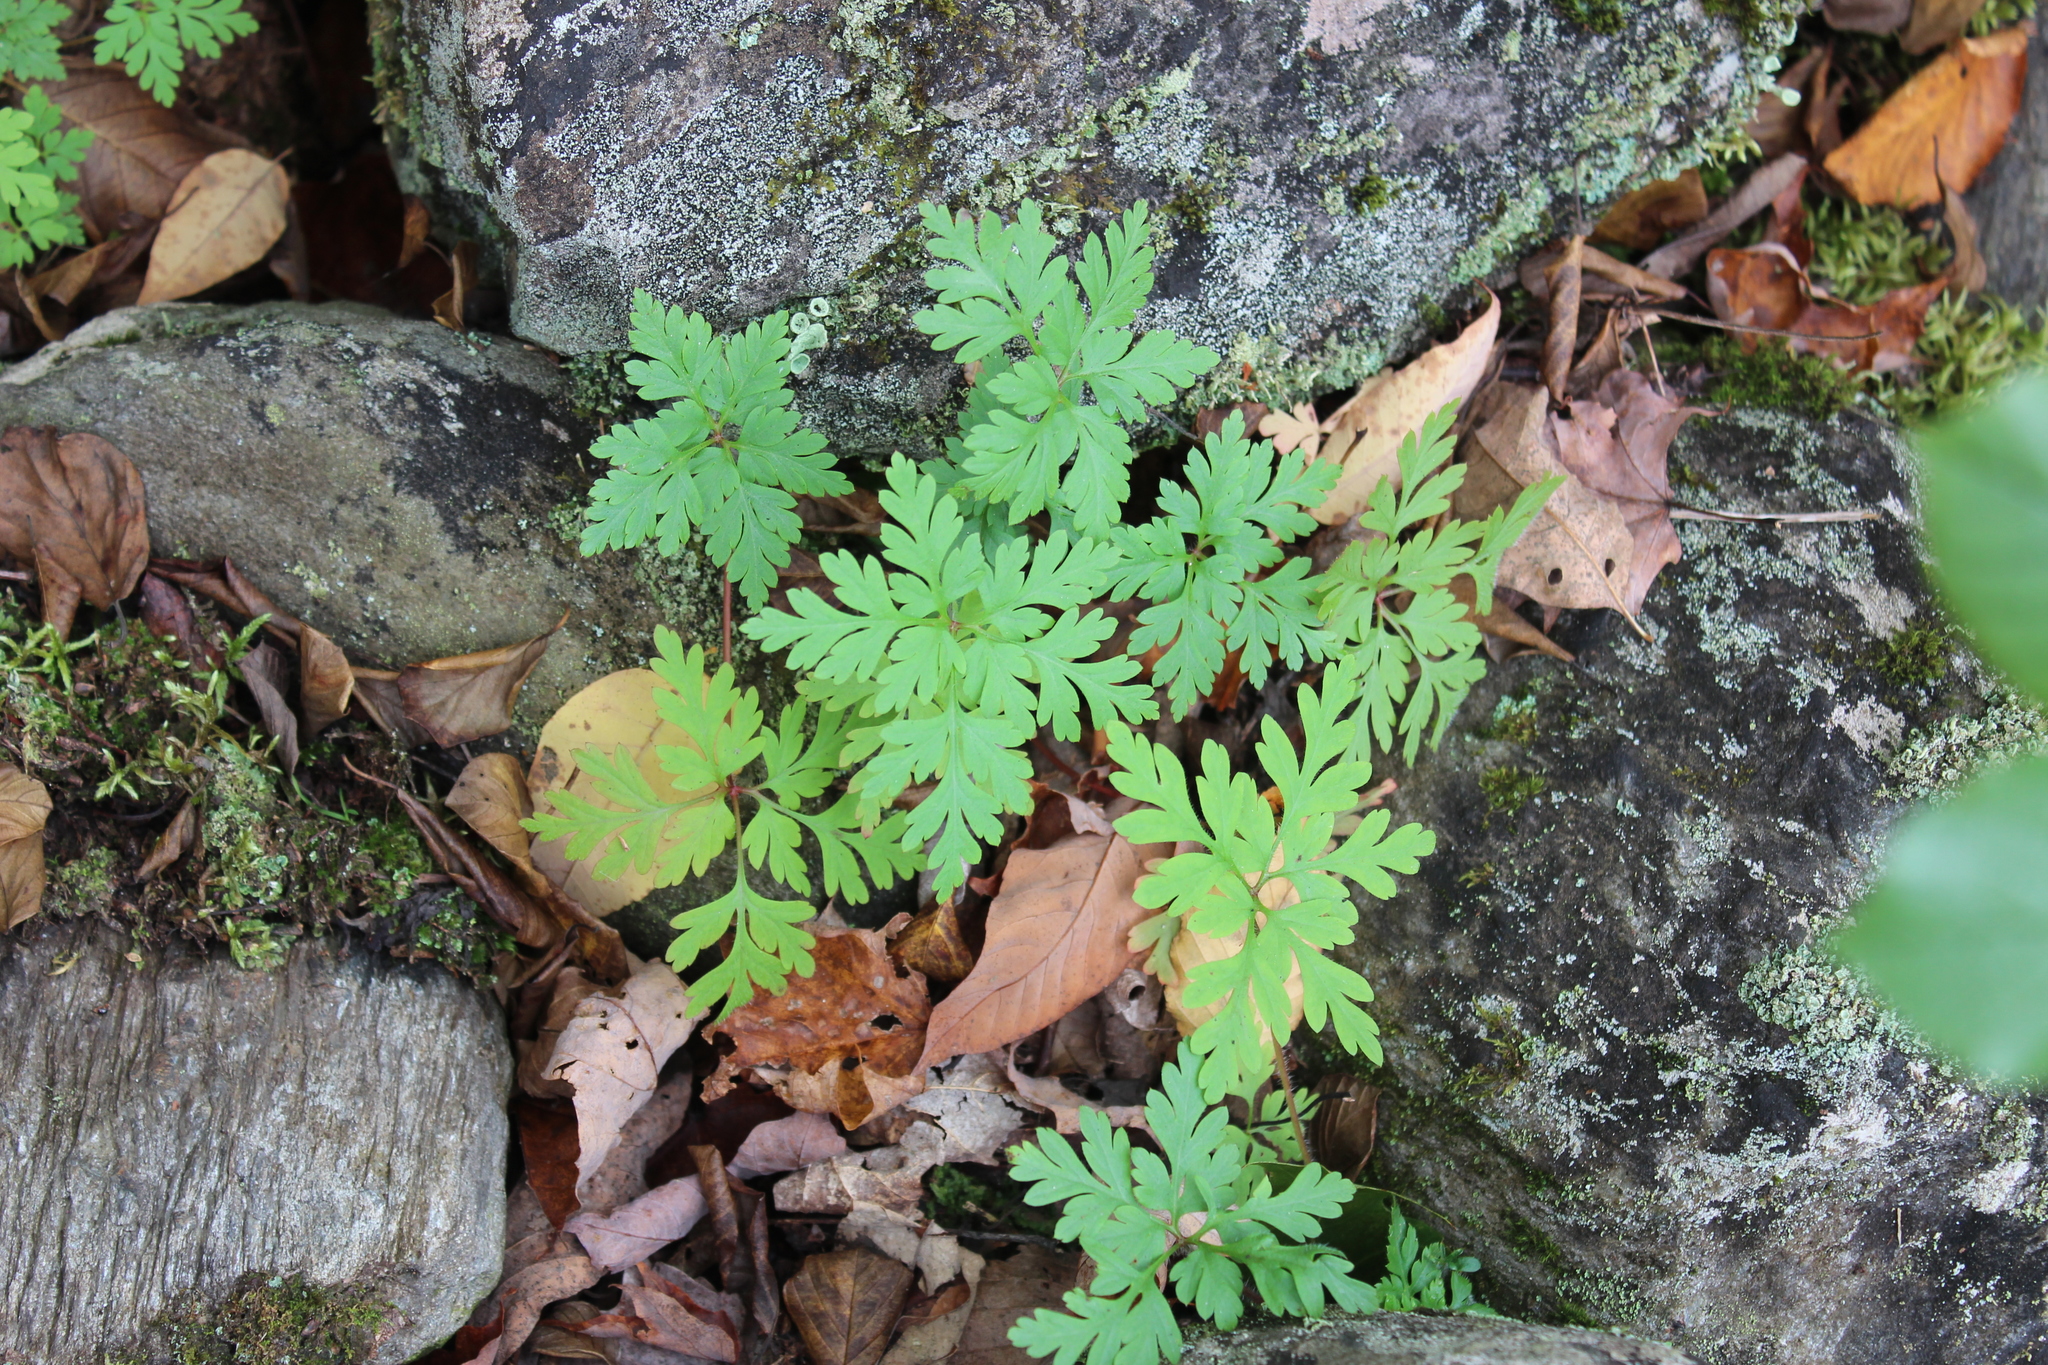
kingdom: Plantae
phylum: Tracheophyta
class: Magnoliopsida
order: Geraniales
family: Geraniaceae
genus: Geranium
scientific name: Geranium robertianum
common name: Herb-robert
